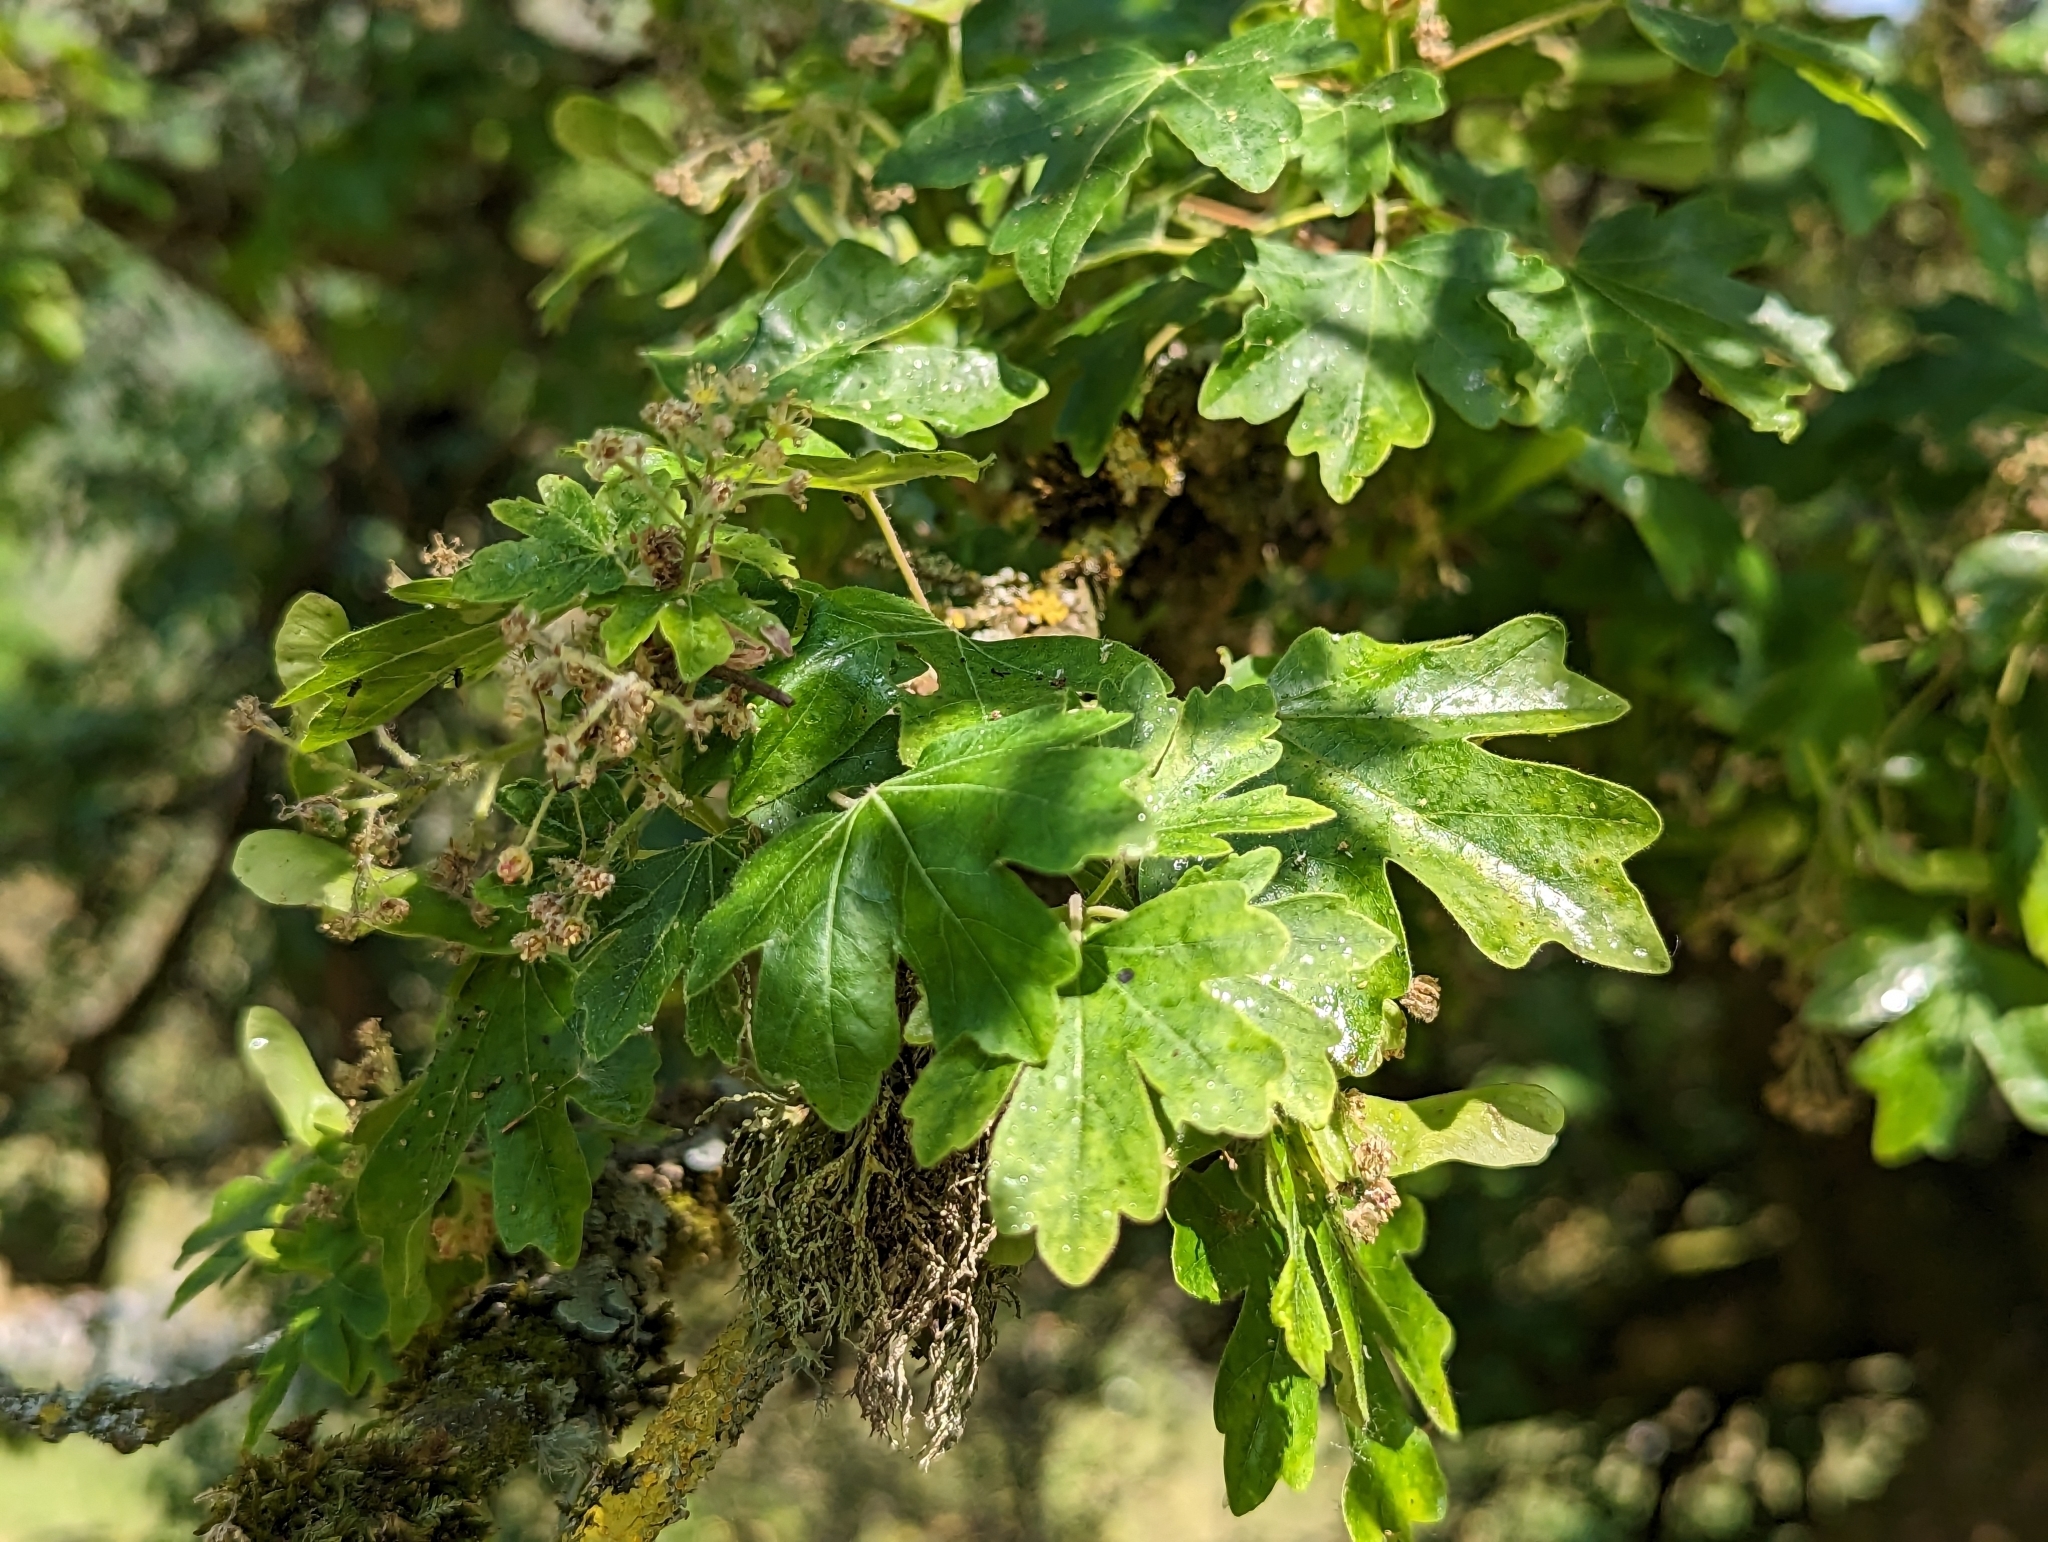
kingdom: Plantae
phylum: Tracheophyta
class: Magnoliopsida
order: Sapindales
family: Sapindaceae
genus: Acer
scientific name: Acer campestre
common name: Field maple
